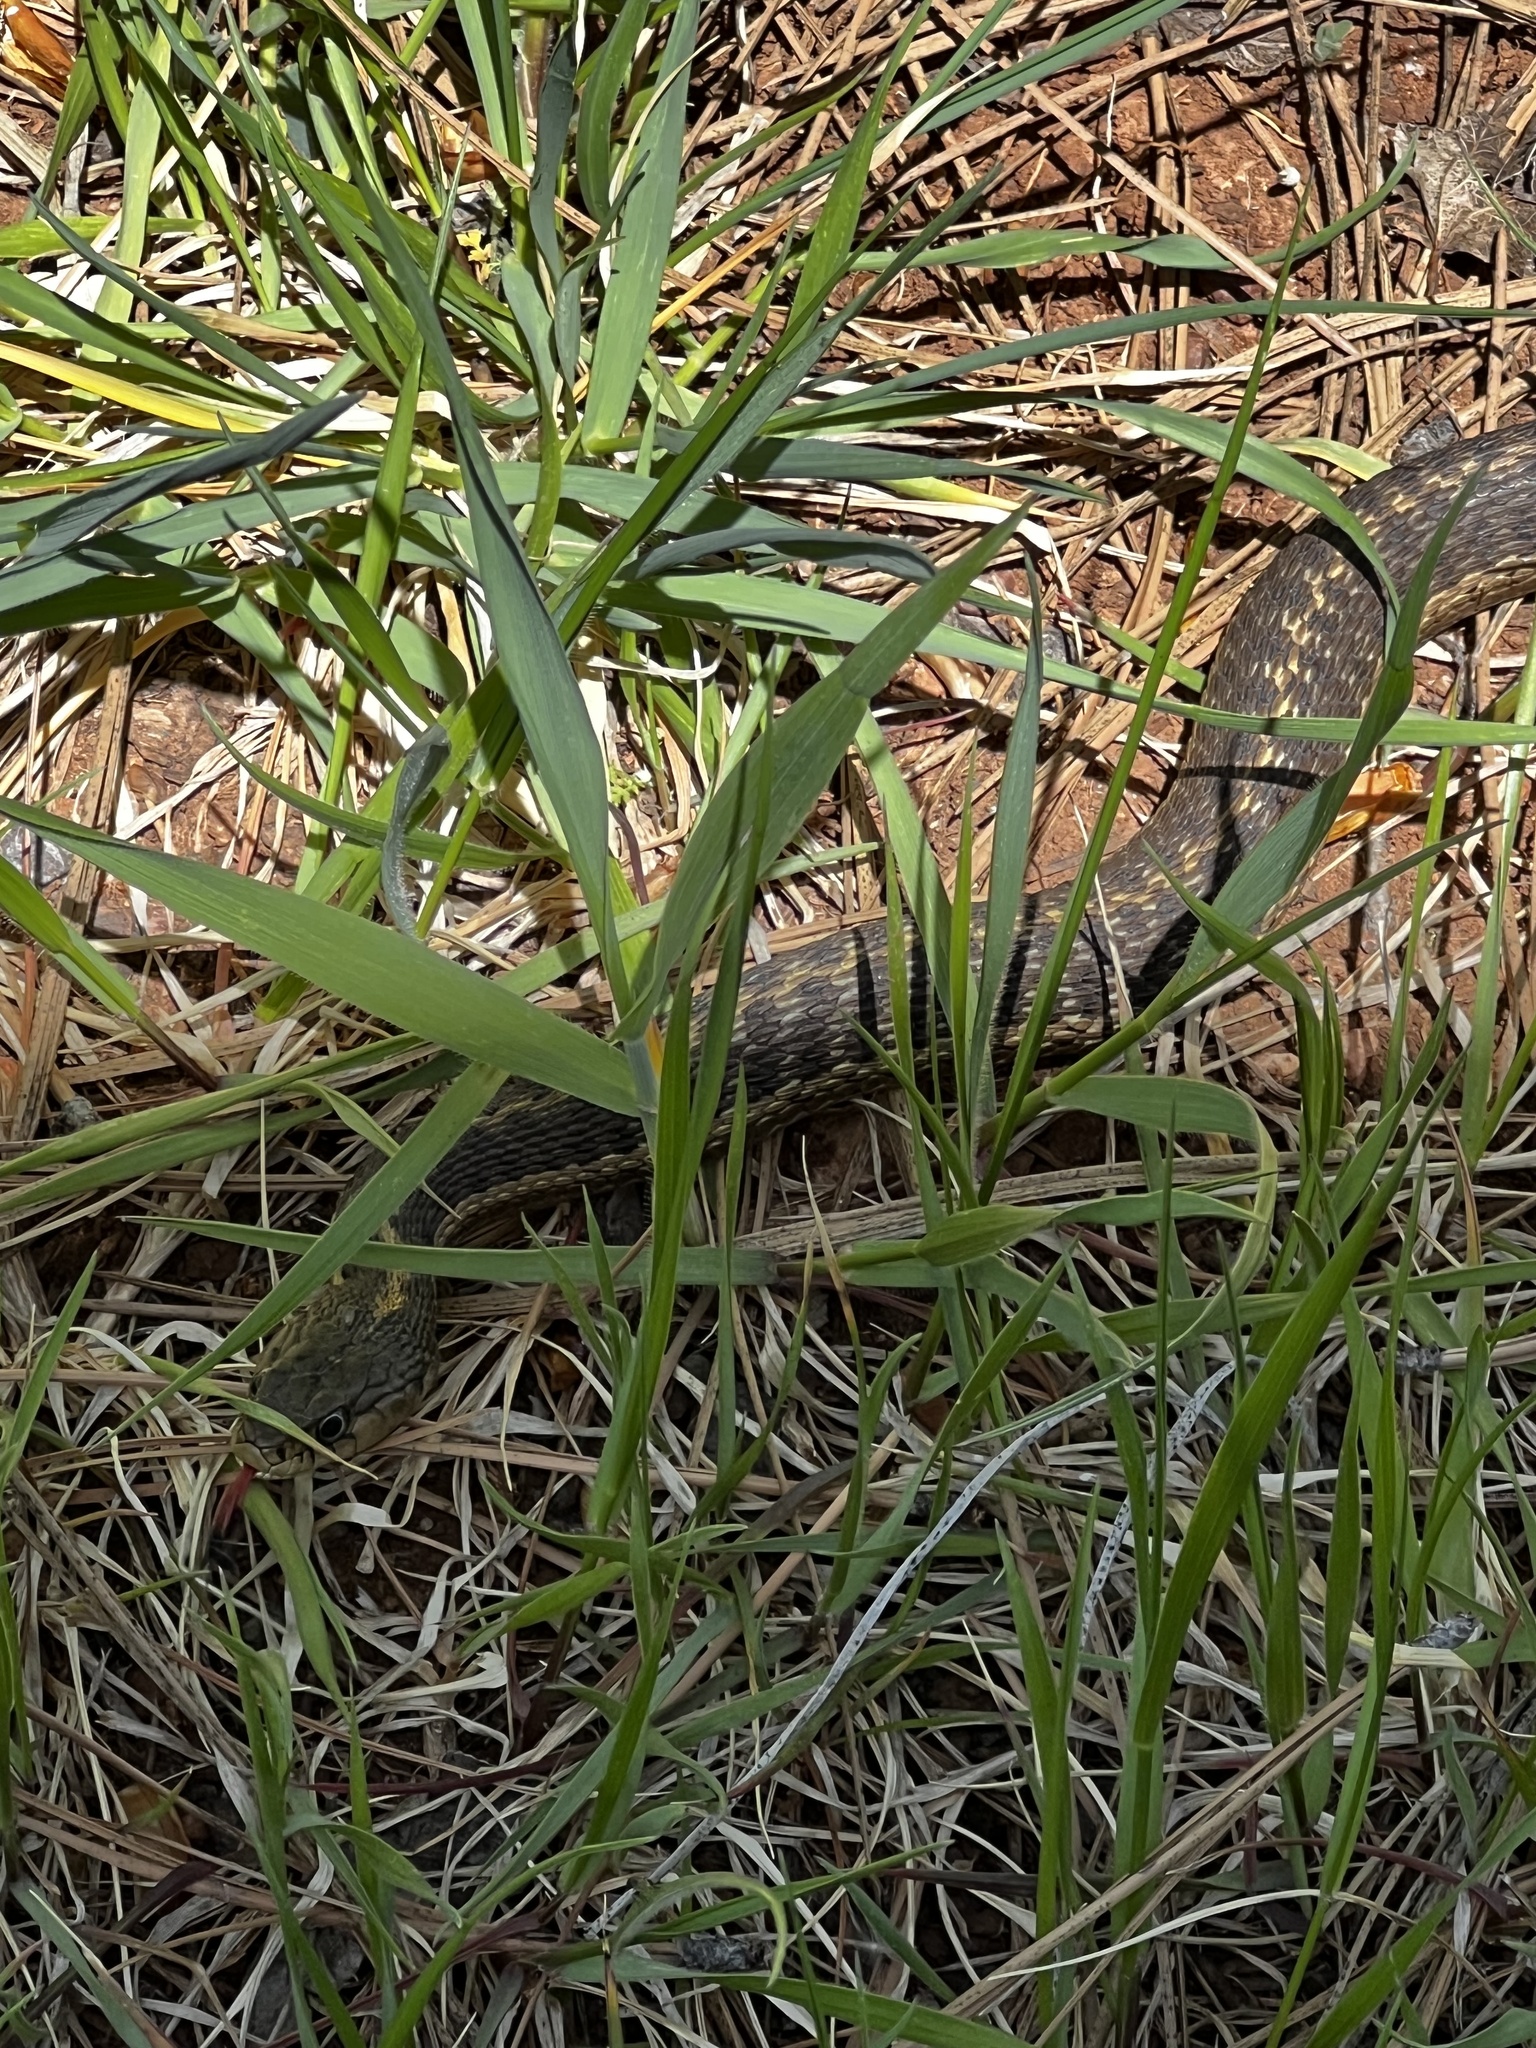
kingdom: Animalia
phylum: Chordata
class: Squamata
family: Colubridae
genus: Thamnophis
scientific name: Thamnophis elegans
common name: Western terrestrial garter snake
